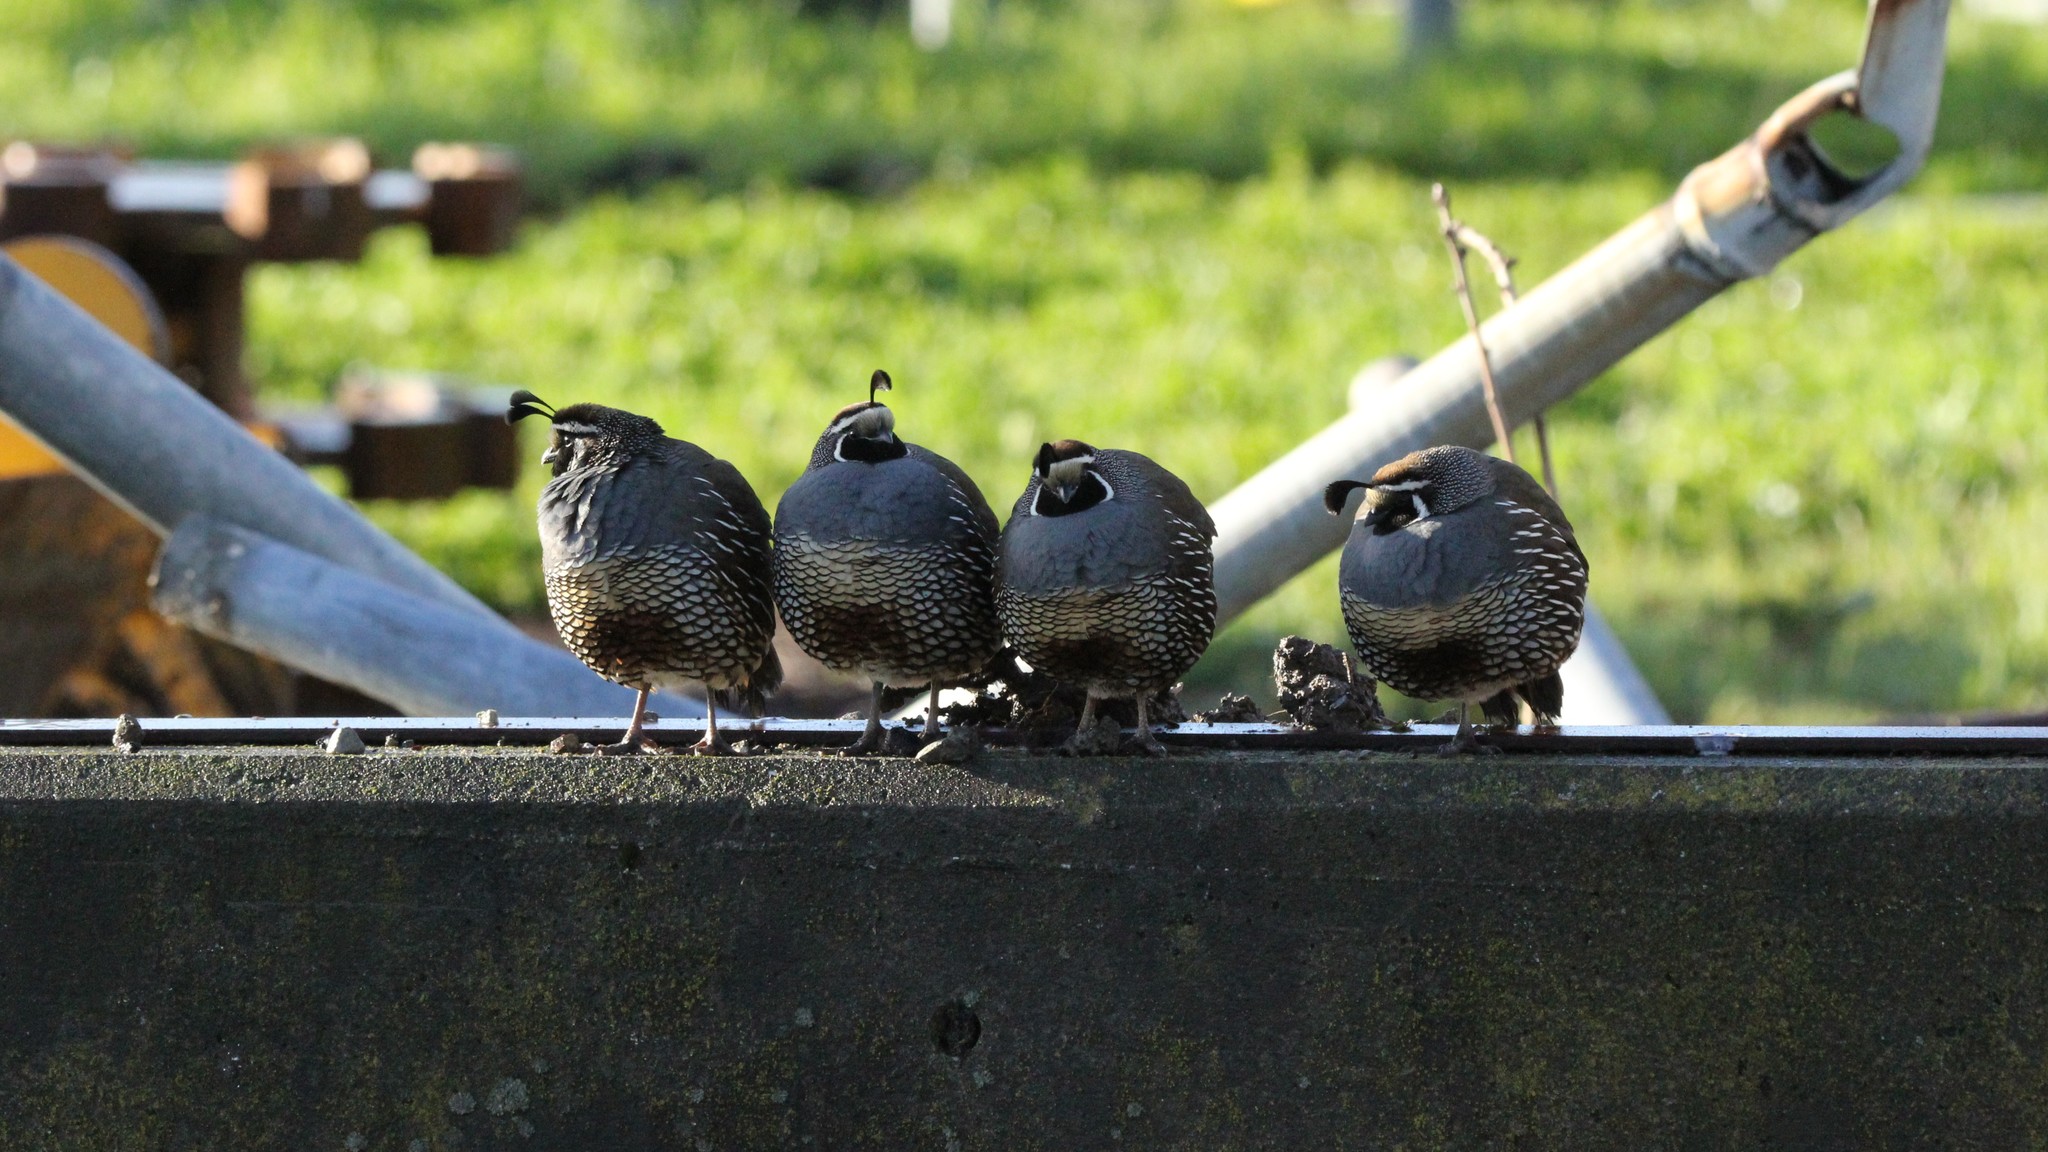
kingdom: Animalia
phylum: Chordata
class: Aves
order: Galliformes
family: Odontophoridae
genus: Callipepla
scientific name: Callipepla californica
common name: California quail
